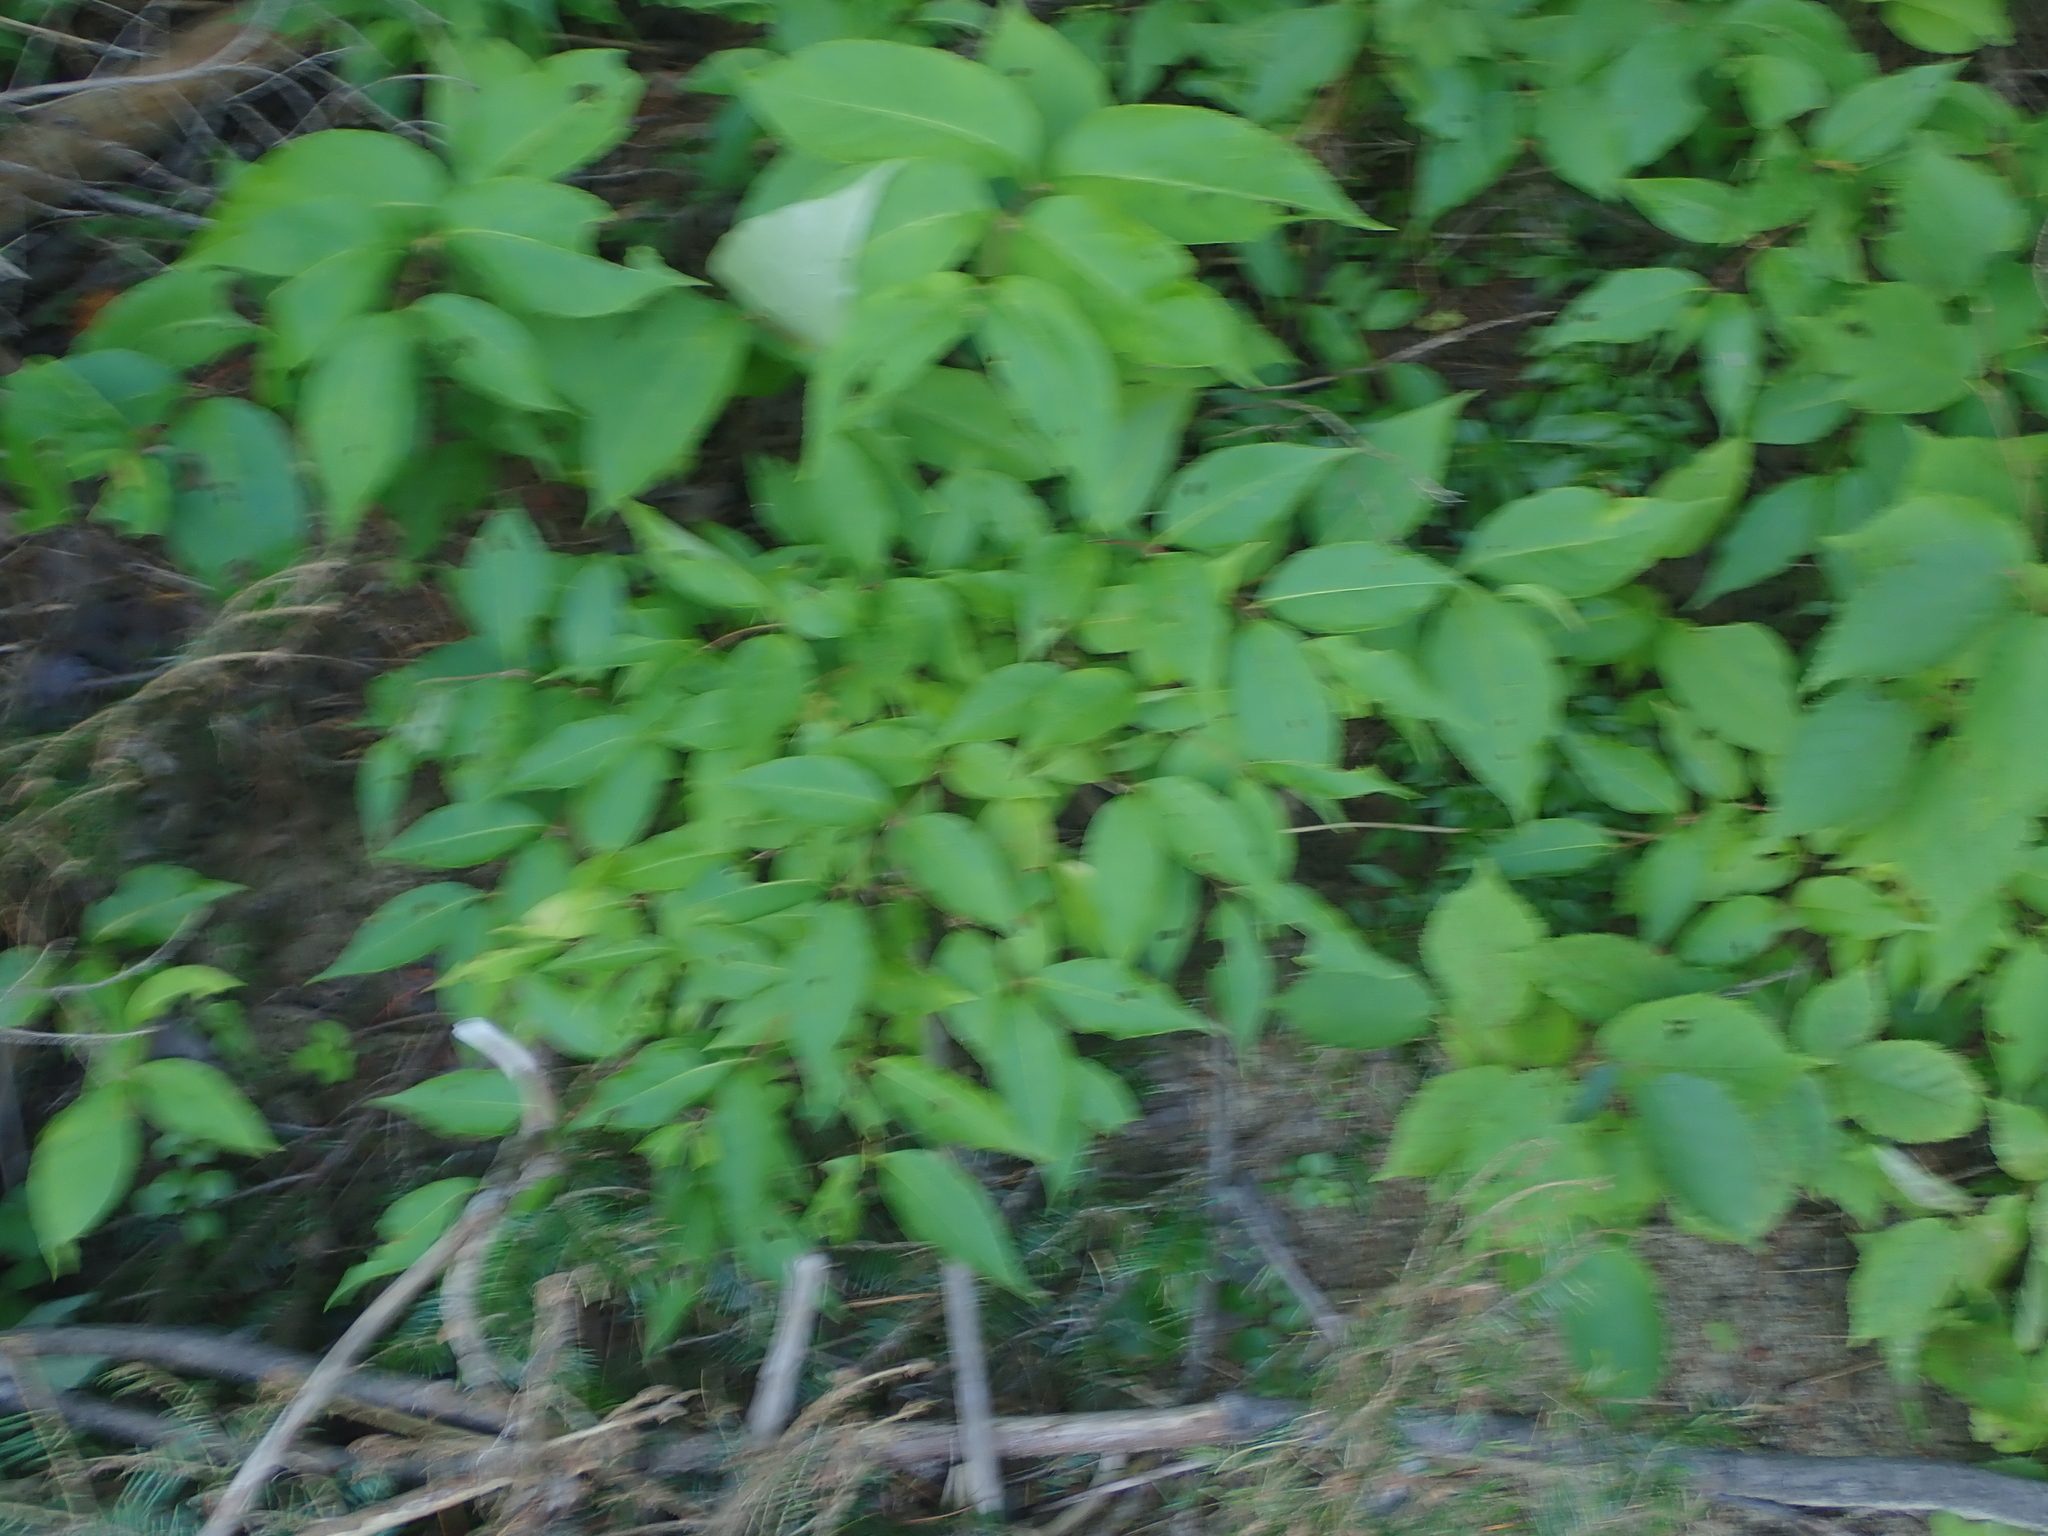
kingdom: Plantae
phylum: Tracheophyta
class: Magnoliopsida
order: Dipsacales
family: Caprifoliaceae
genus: Diervilla
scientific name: Diervilla lonicera
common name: Bush-honeysuckle
